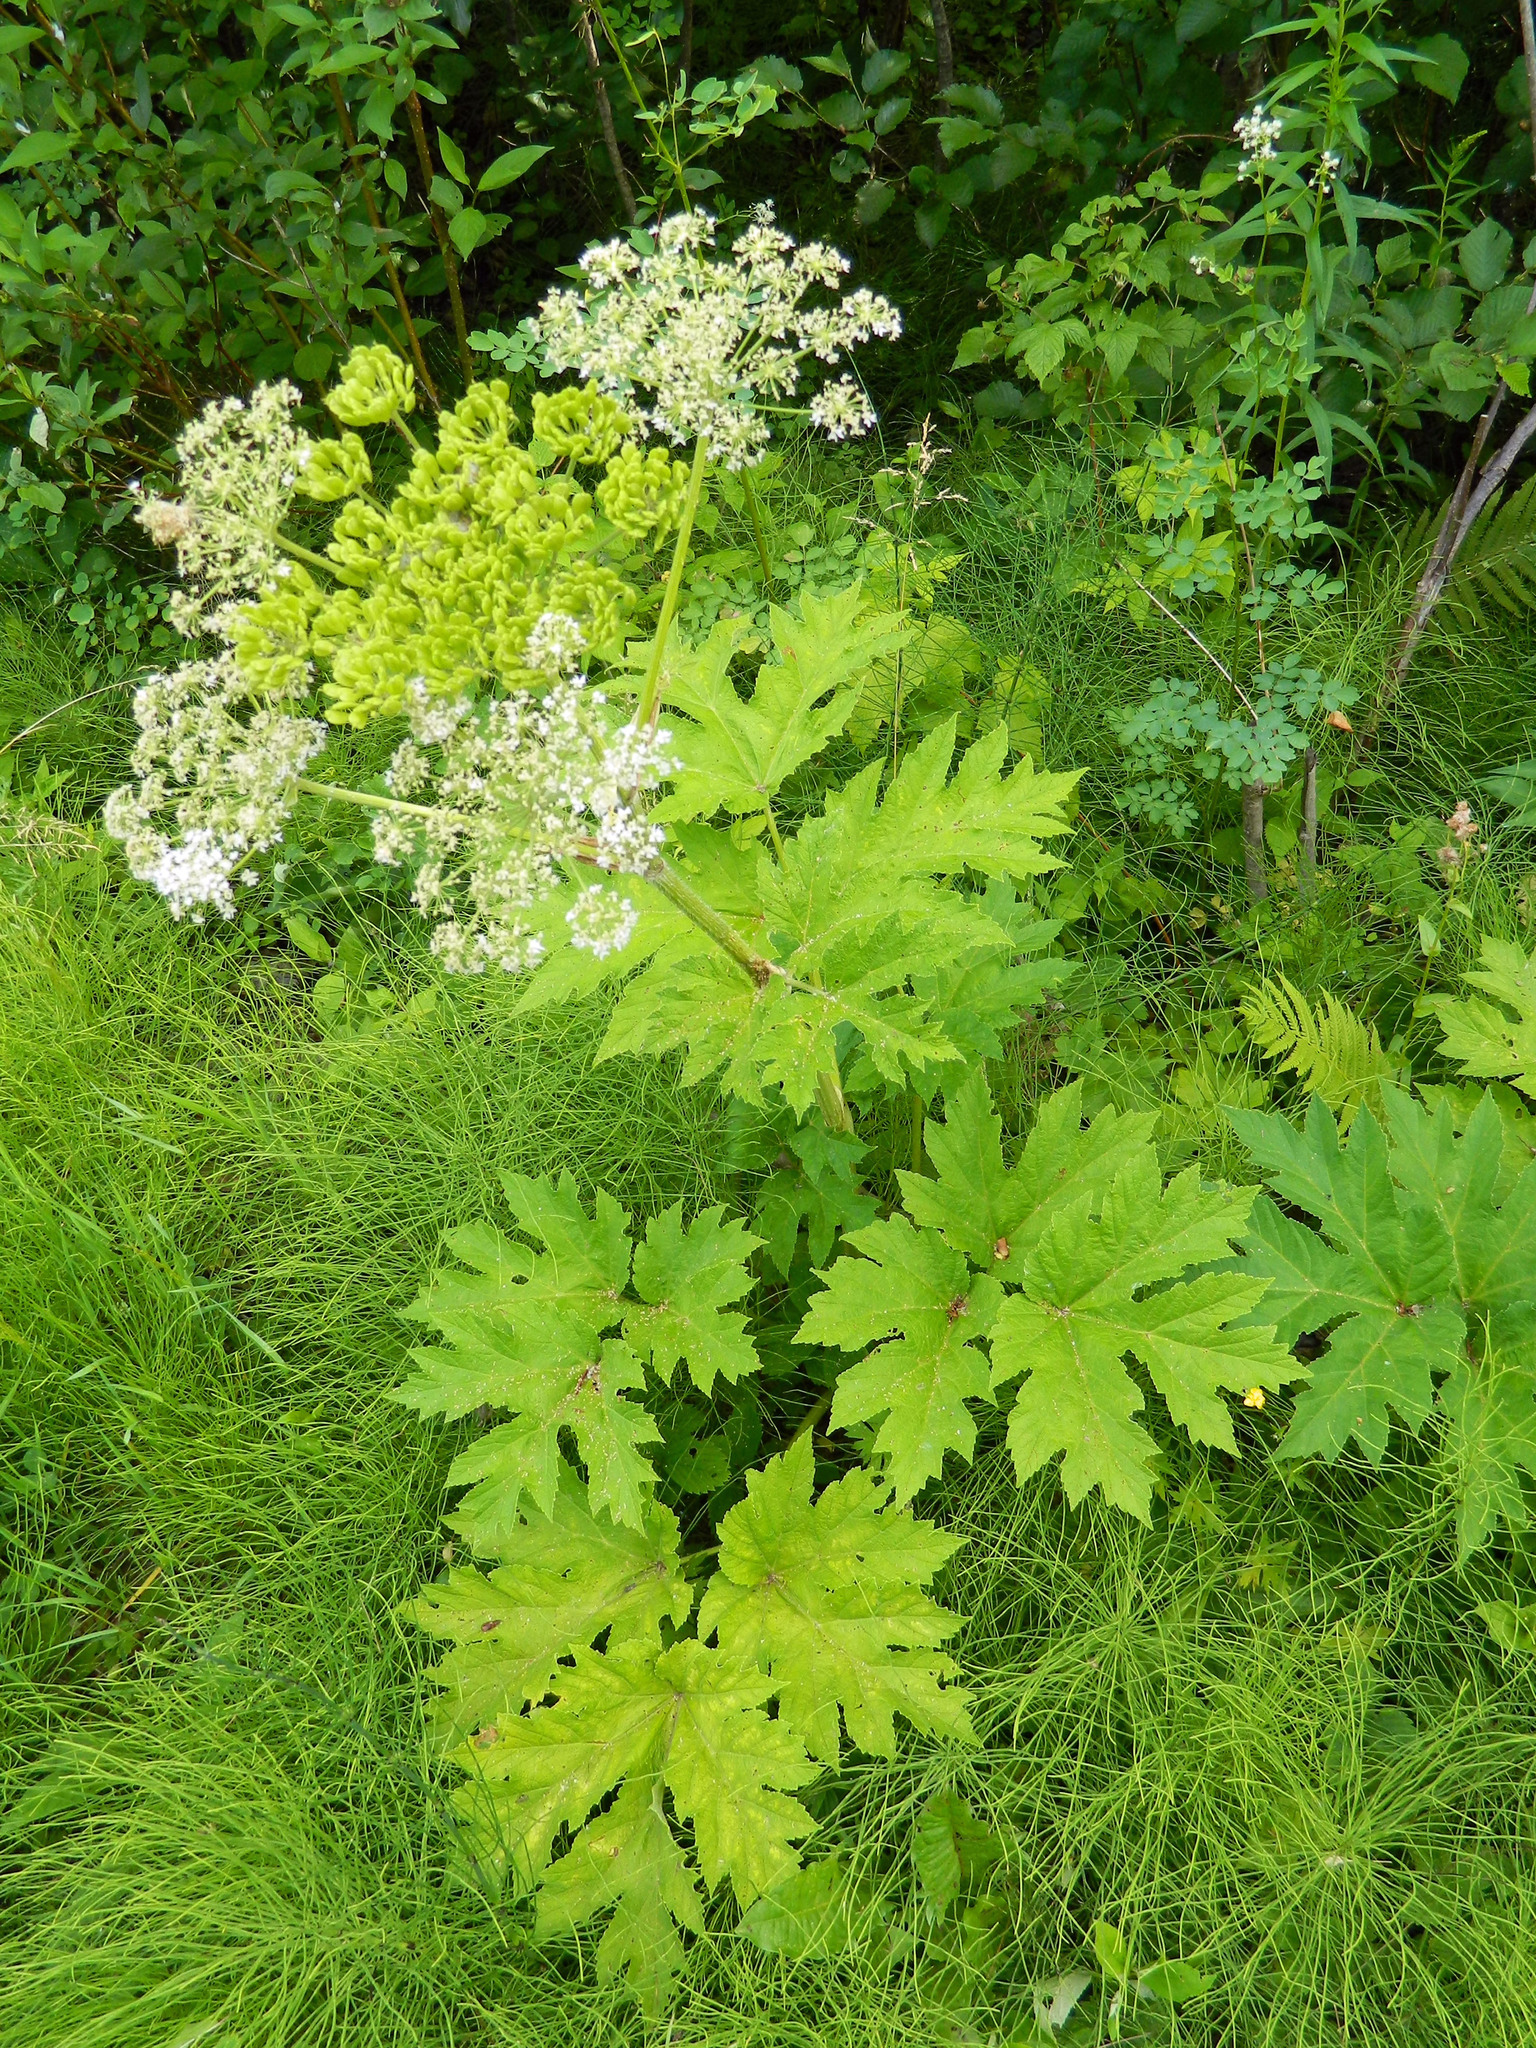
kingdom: Plantae
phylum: Tracheophyta
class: Magnoliopsida
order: Apiales
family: Apiaceae
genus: Heracleum
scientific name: Heracleum maximum
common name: American cow parsnip
